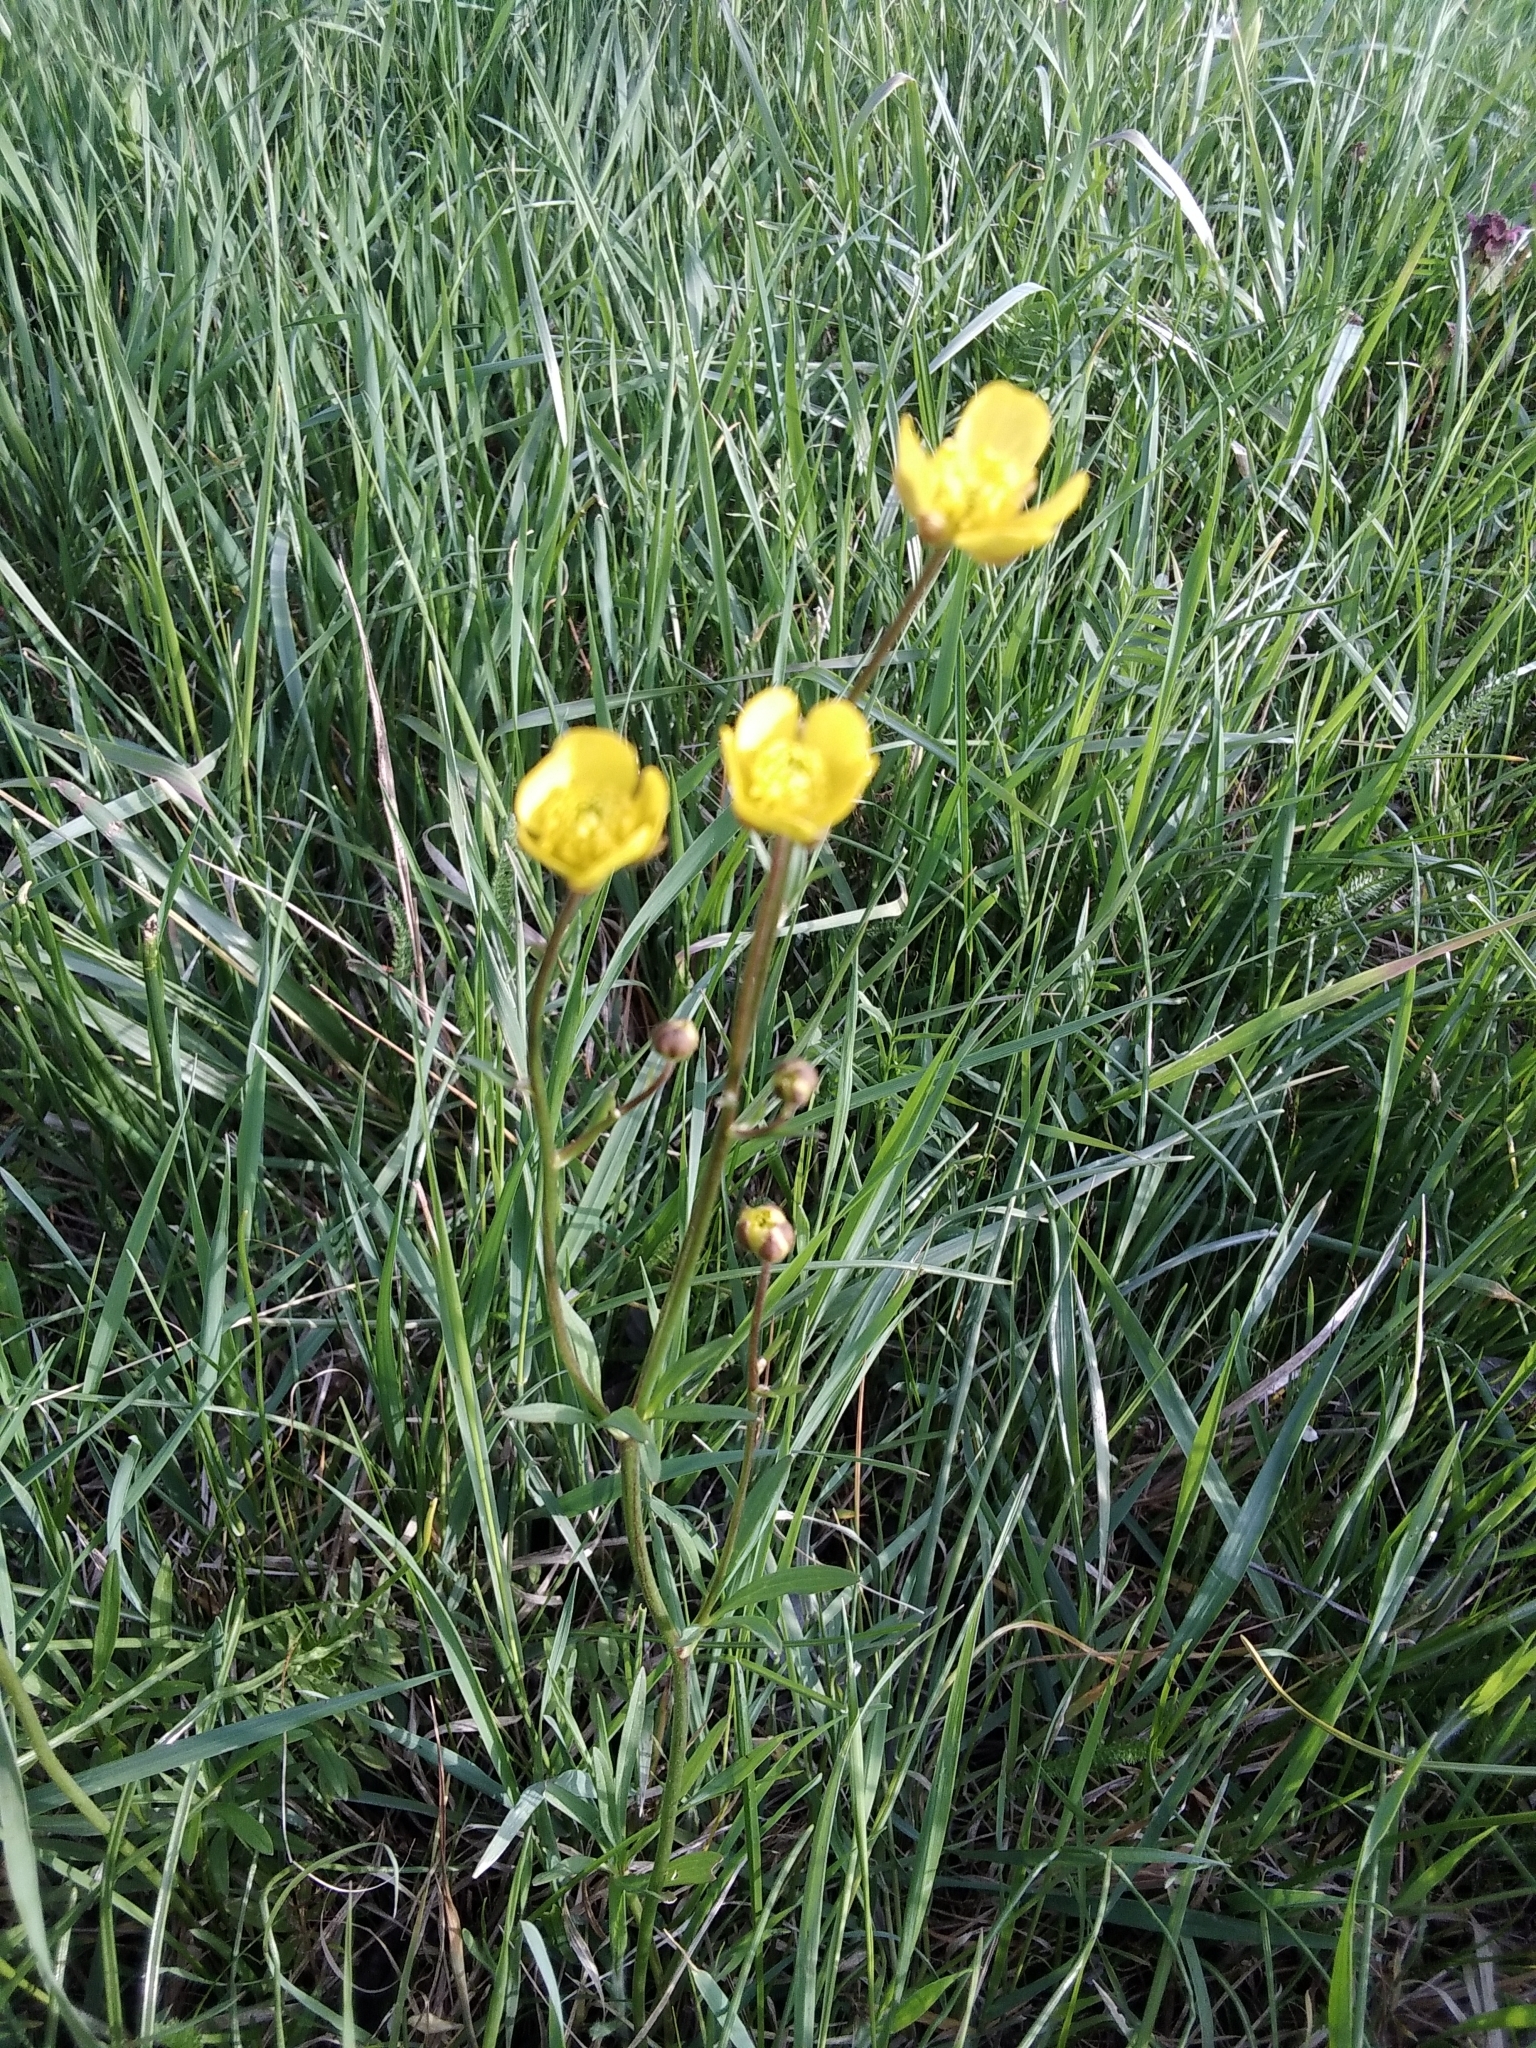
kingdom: Plantae
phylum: Tracheophyta
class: Magnoliopsida
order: Ranunculales
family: Ranunculaceae
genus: Ranunculus
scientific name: Ranunculus acris
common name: Meadow buttercup
